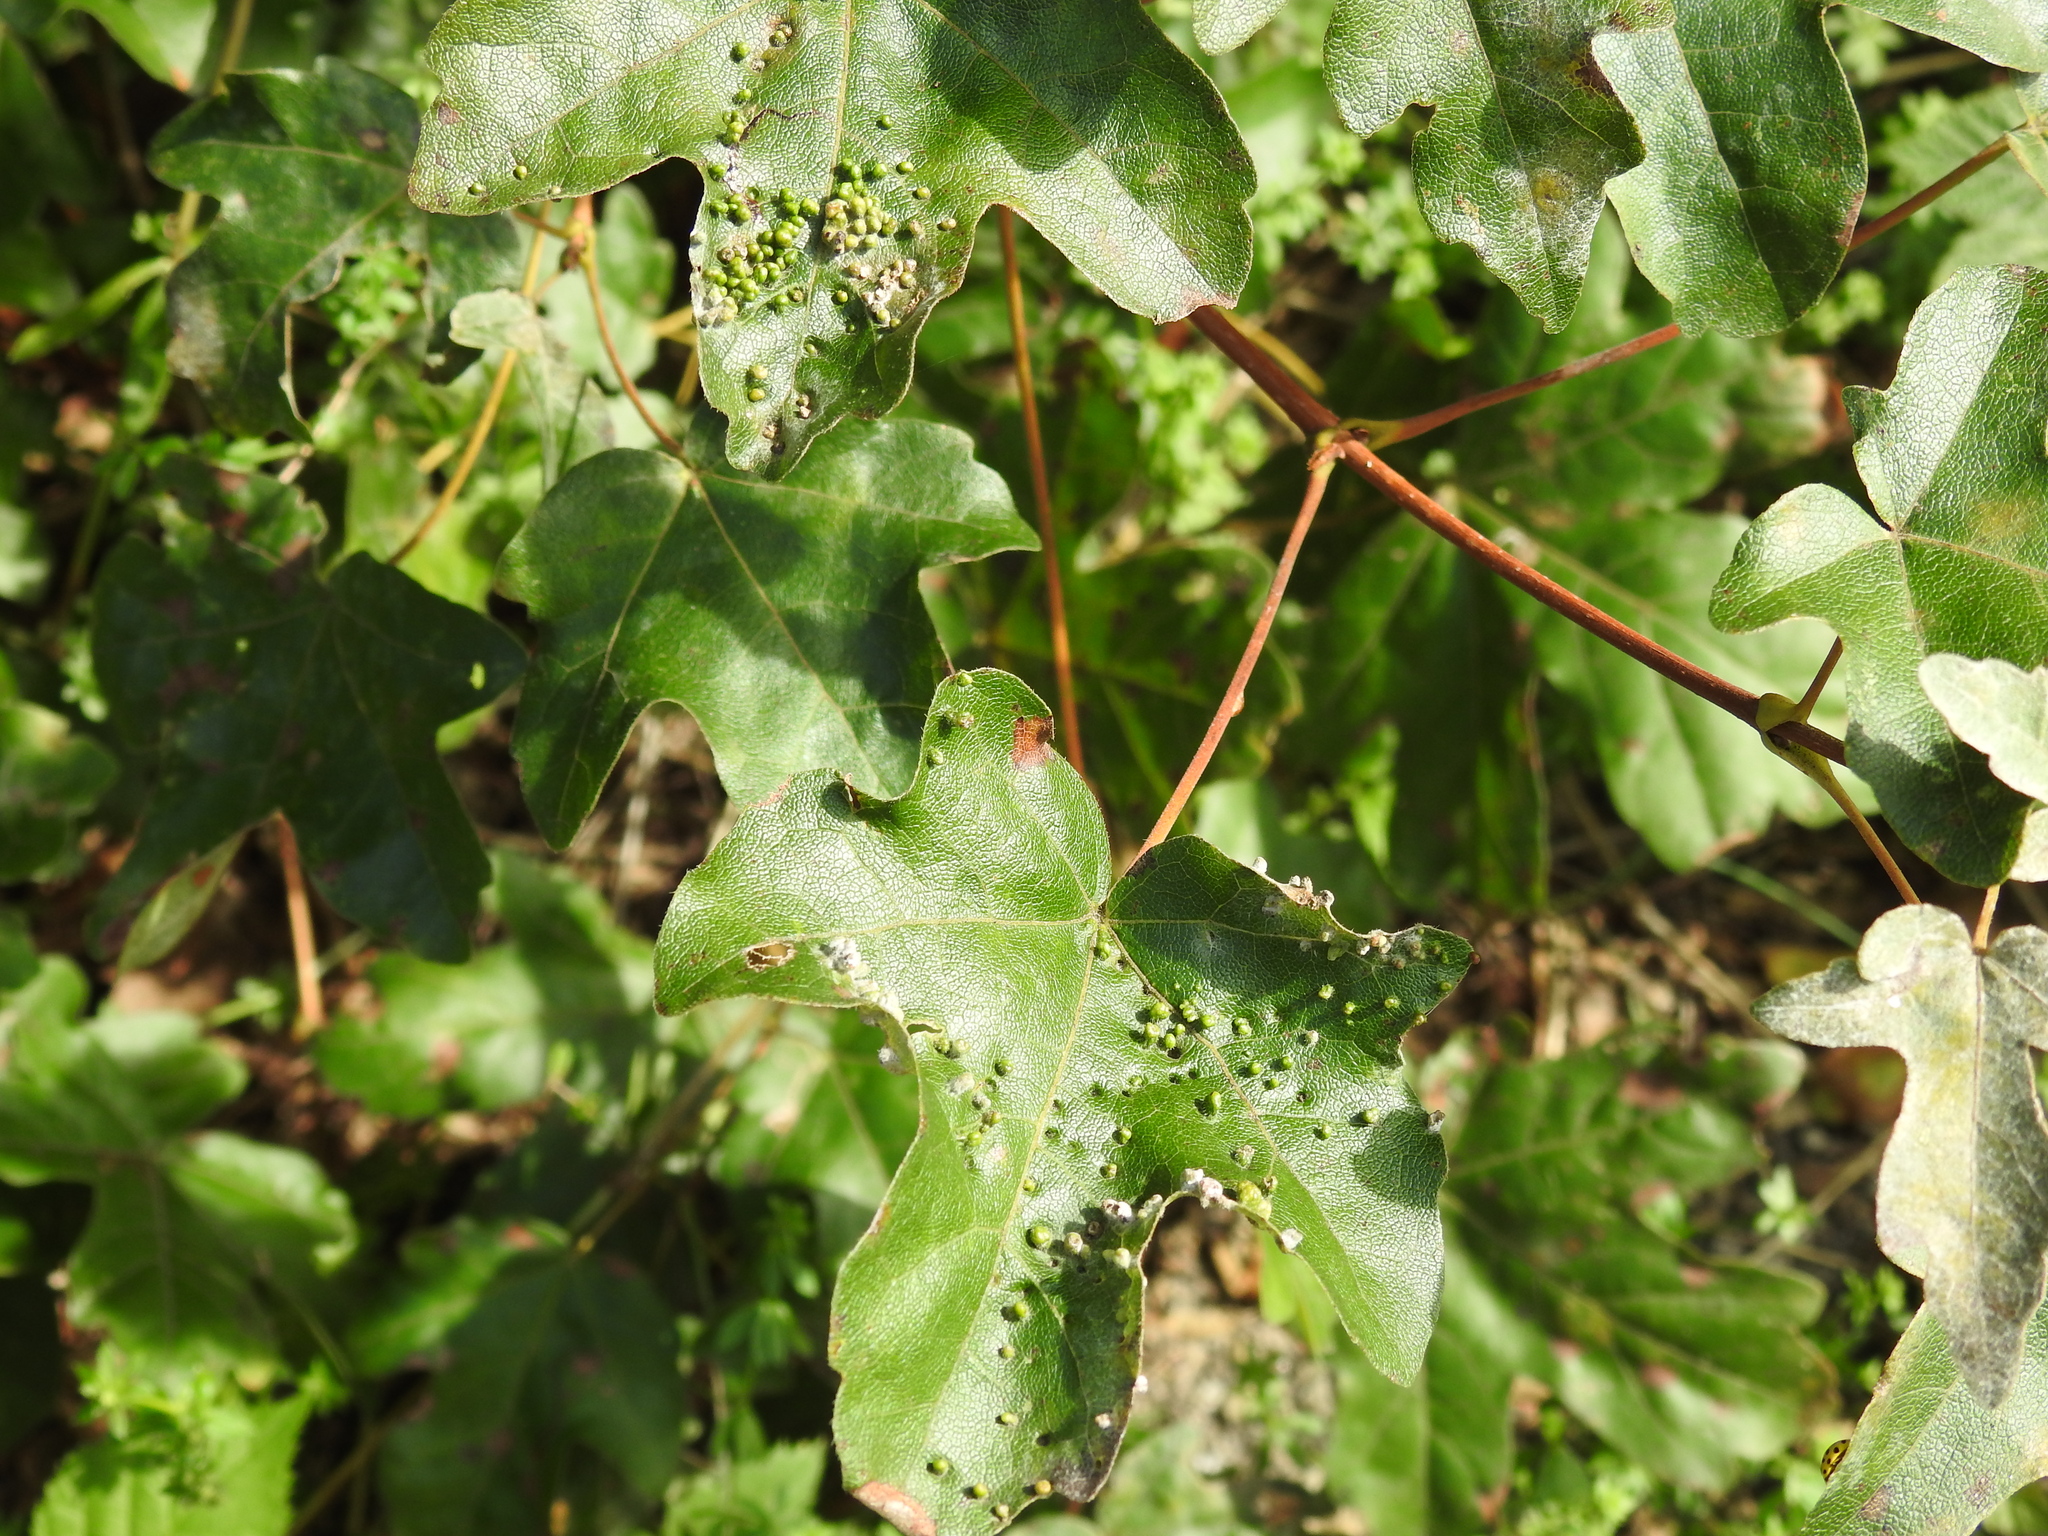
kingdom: Animalia
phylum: Arthropoda
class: Arachnida
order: Trombidiformes
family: Eriophyidae
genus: Aceria
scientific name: Aceria myriadeum
